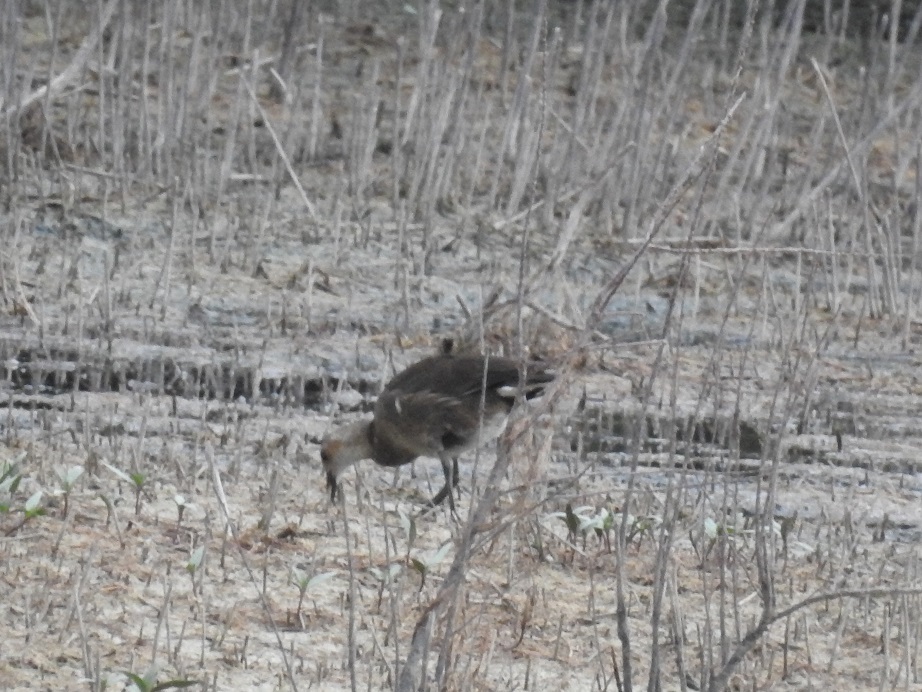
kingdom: Animalia
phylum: Chordata
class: Aves
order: Gruiformes
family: Rallidae
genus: Gallinula
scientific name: Gallinula chloropus
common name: Common moorhen
